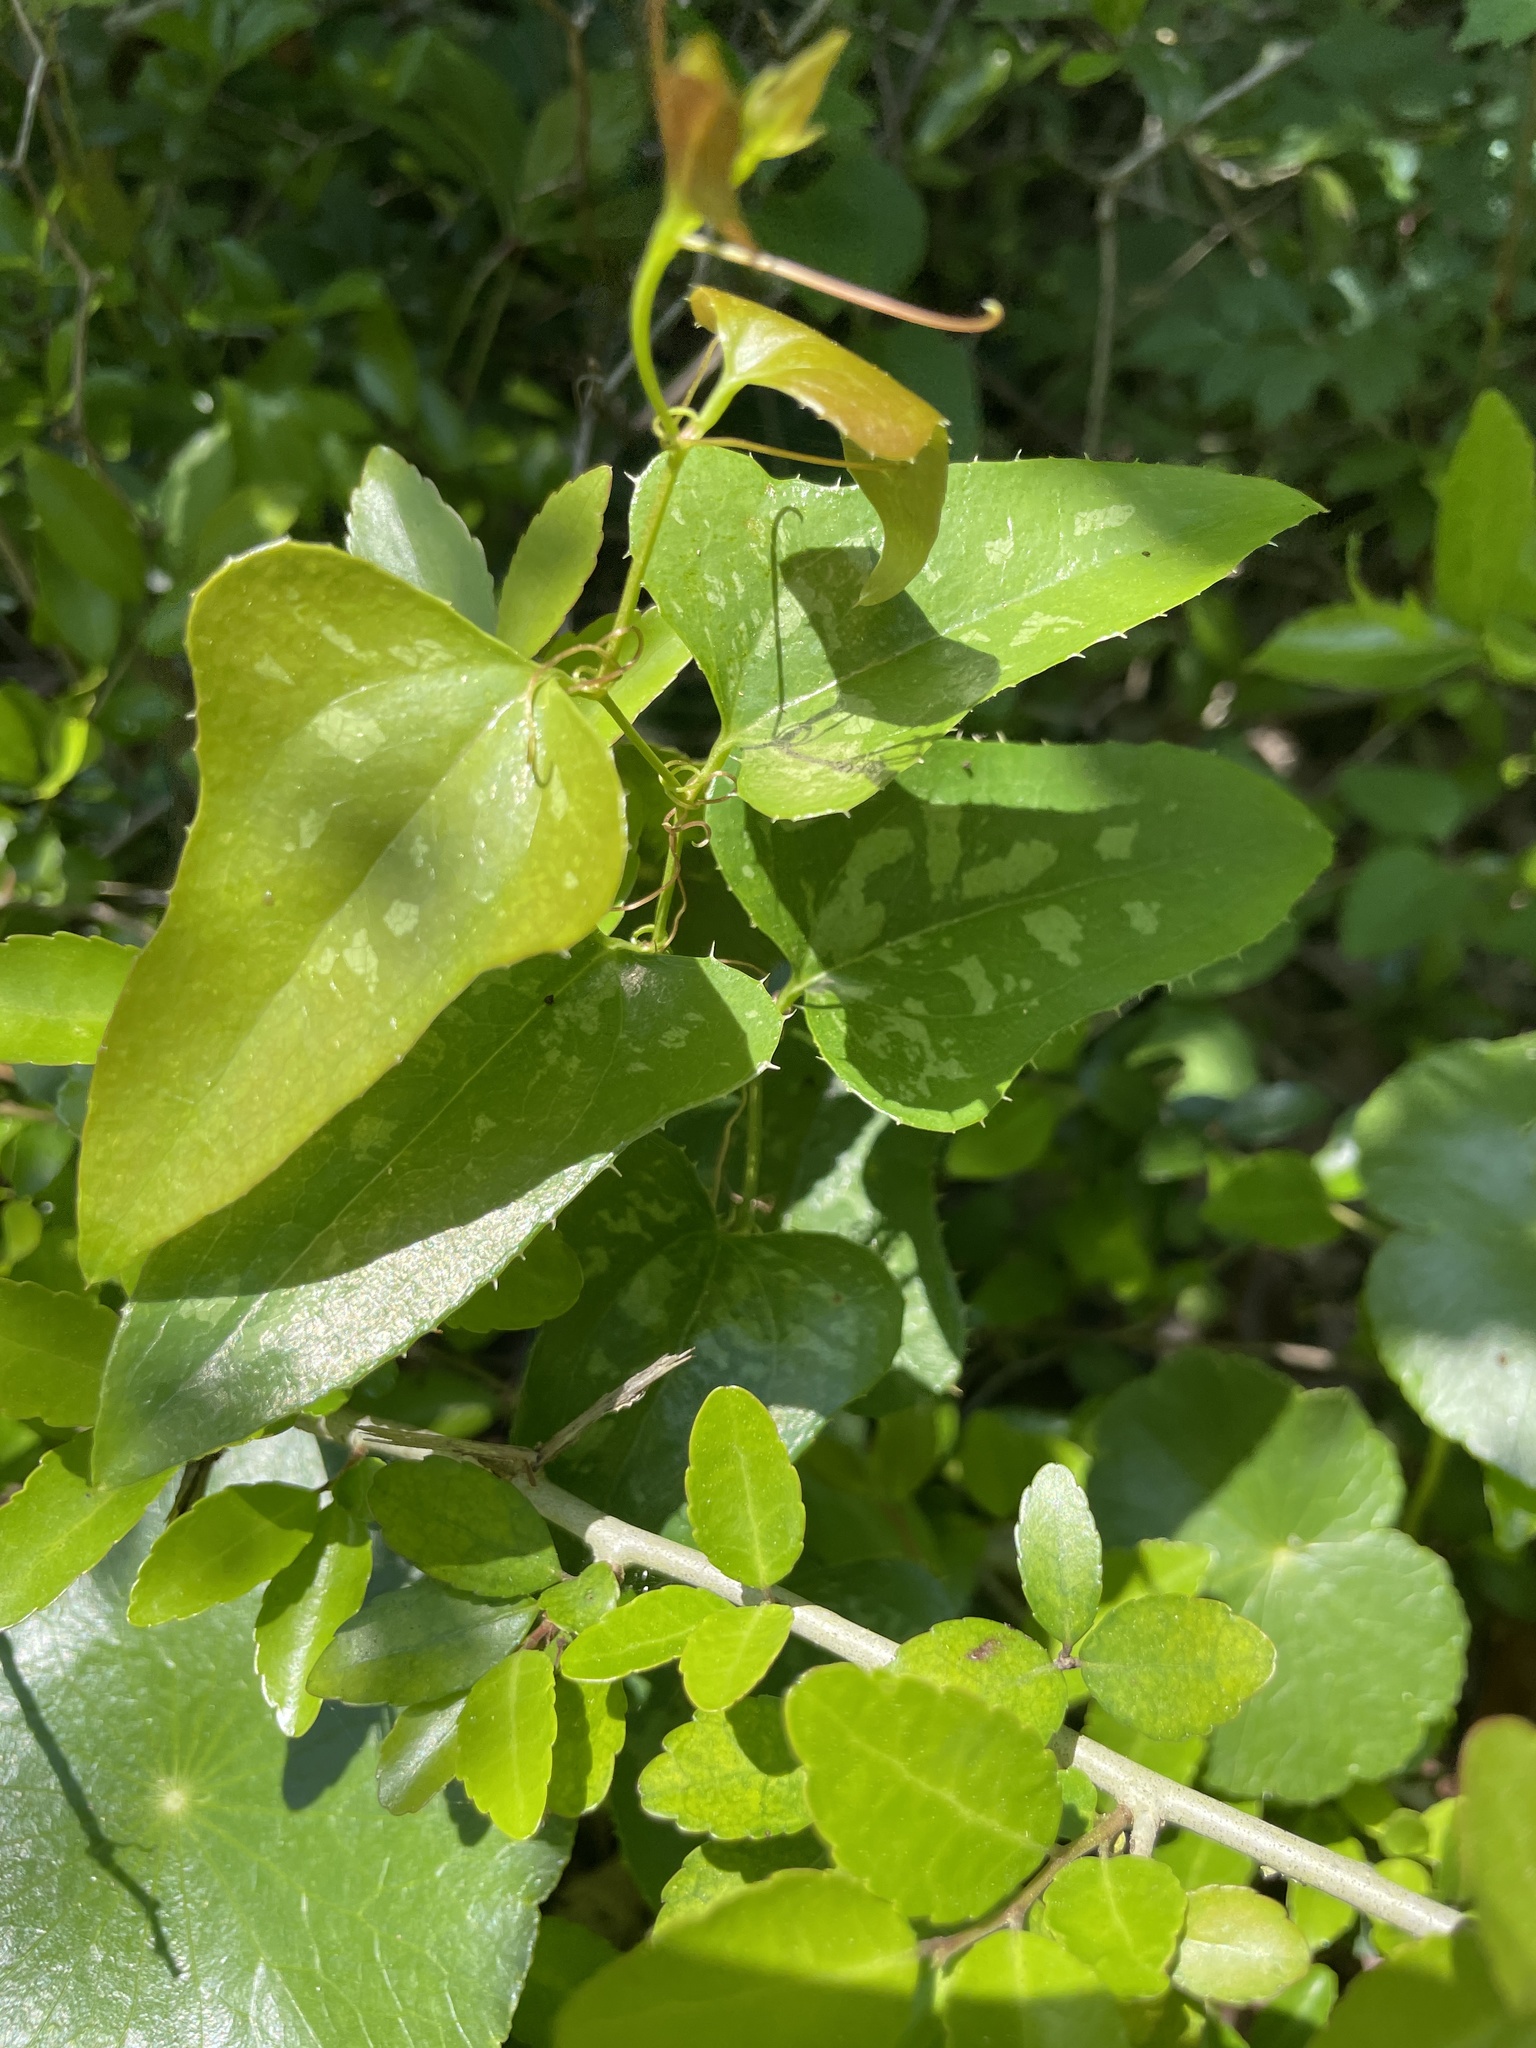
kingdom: Plantae
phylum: Tracheophyta
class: Liliopsida
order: Liliales
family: Smilacaceae
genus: Smilax
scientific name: Smilax bona-nox
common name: Catbrier
